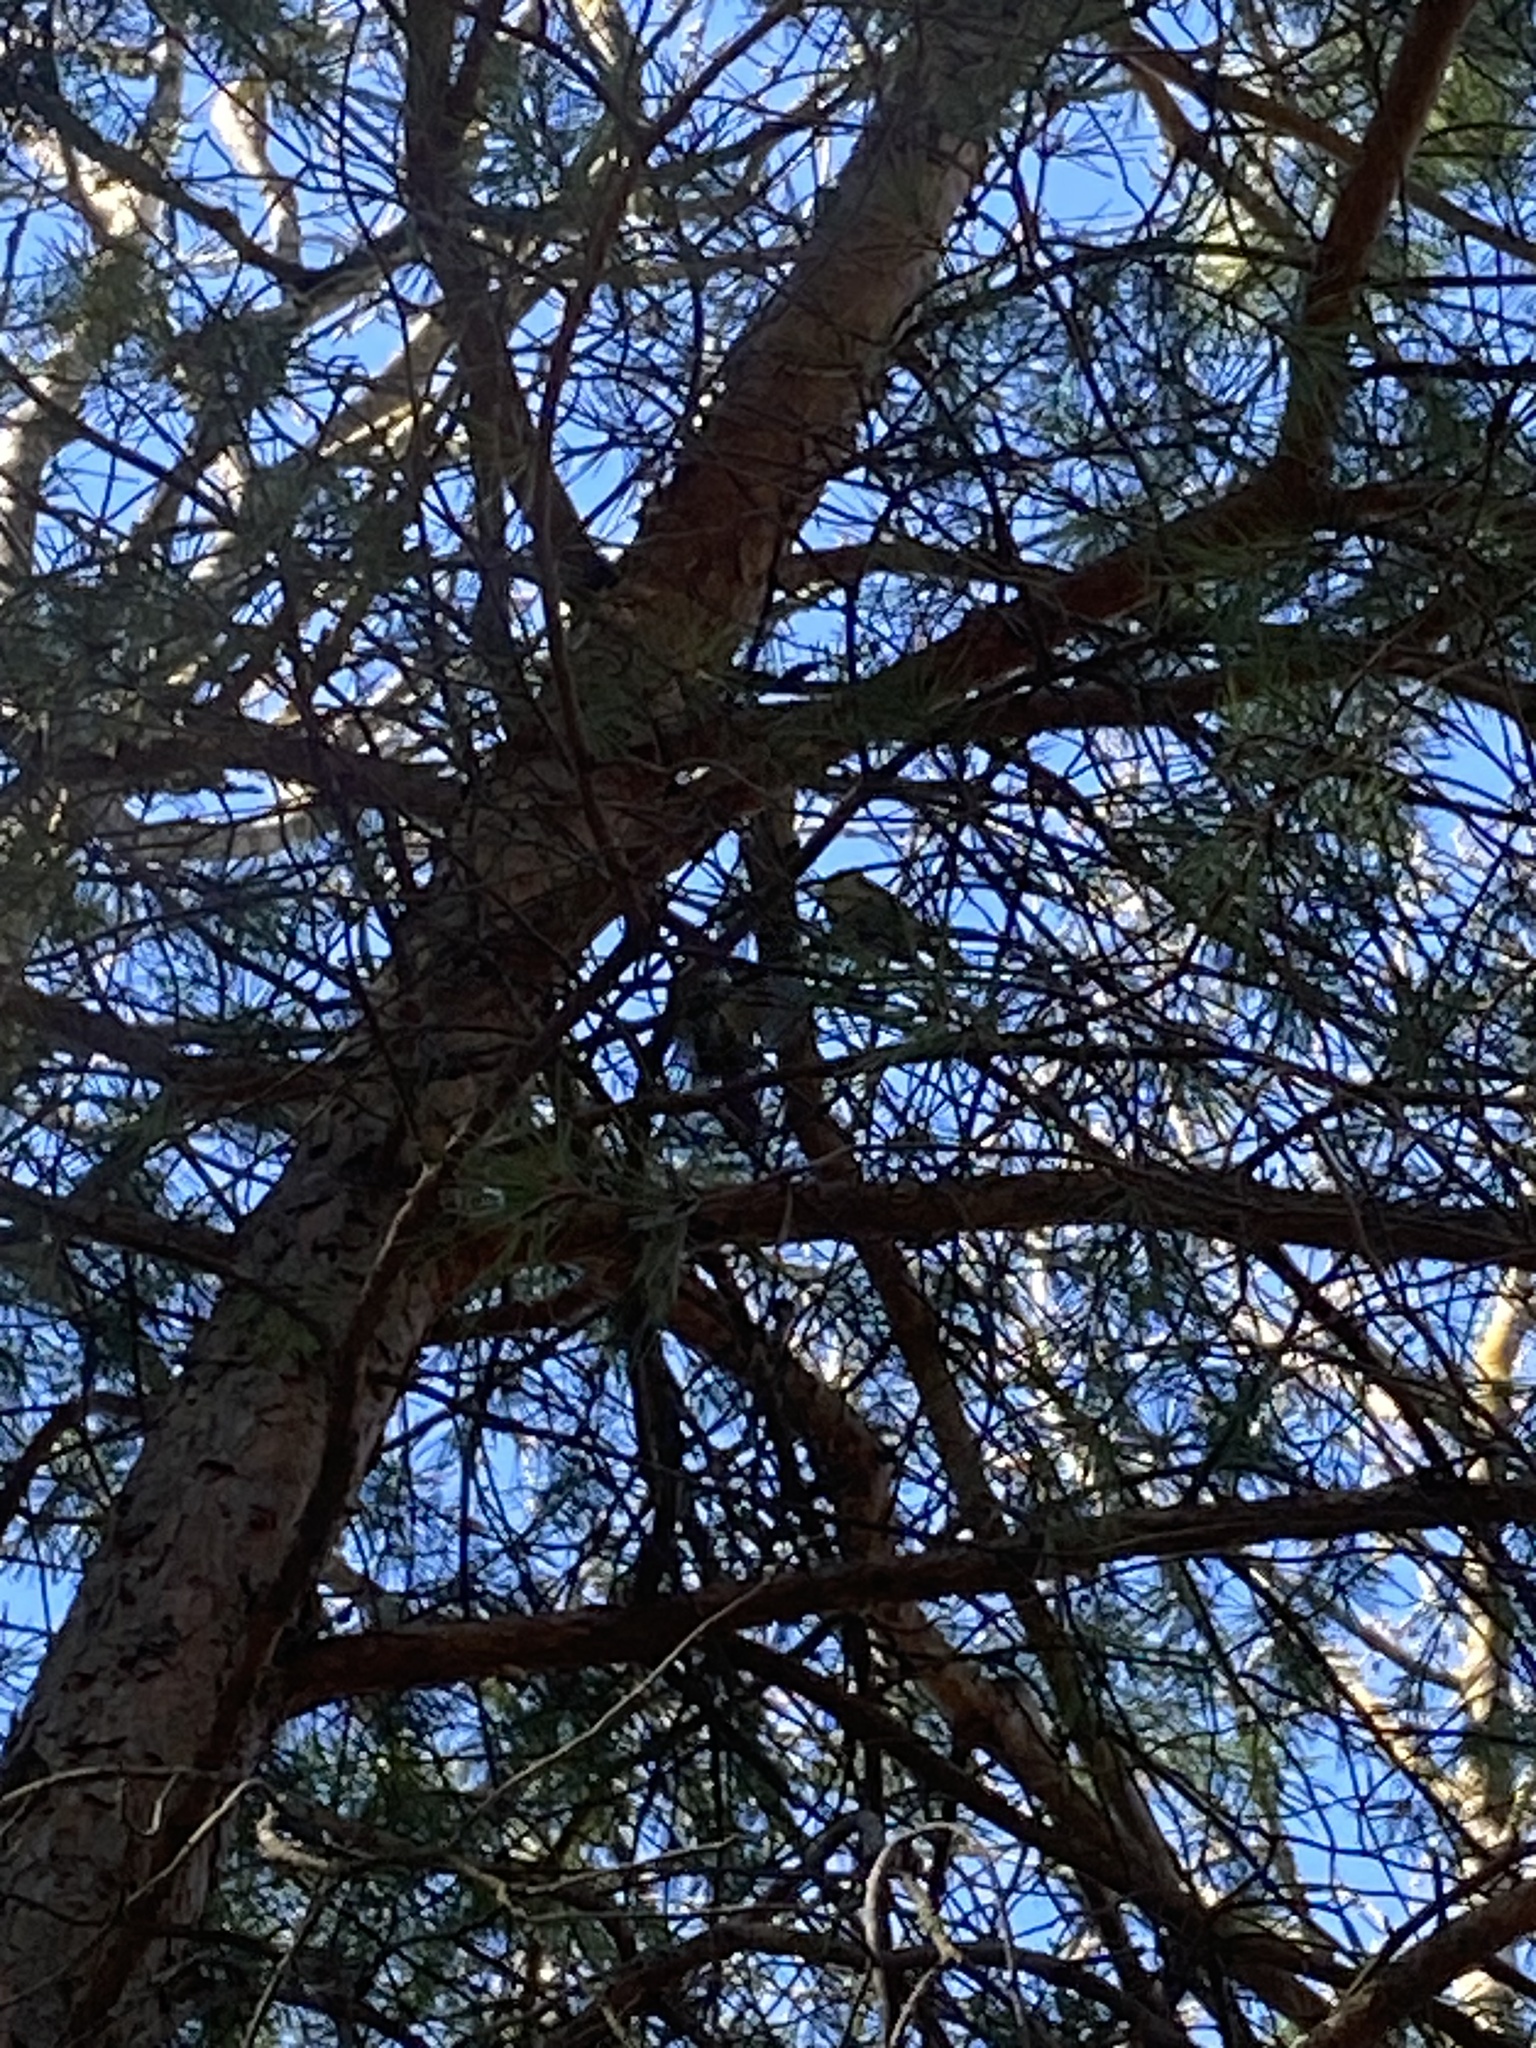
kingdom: Animalia
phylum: Chordata
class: Aves
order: Passeriformes
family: Paridae
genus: Cyanistes
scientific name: Cyanistes caeruleus
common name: Eurasian blue tit
